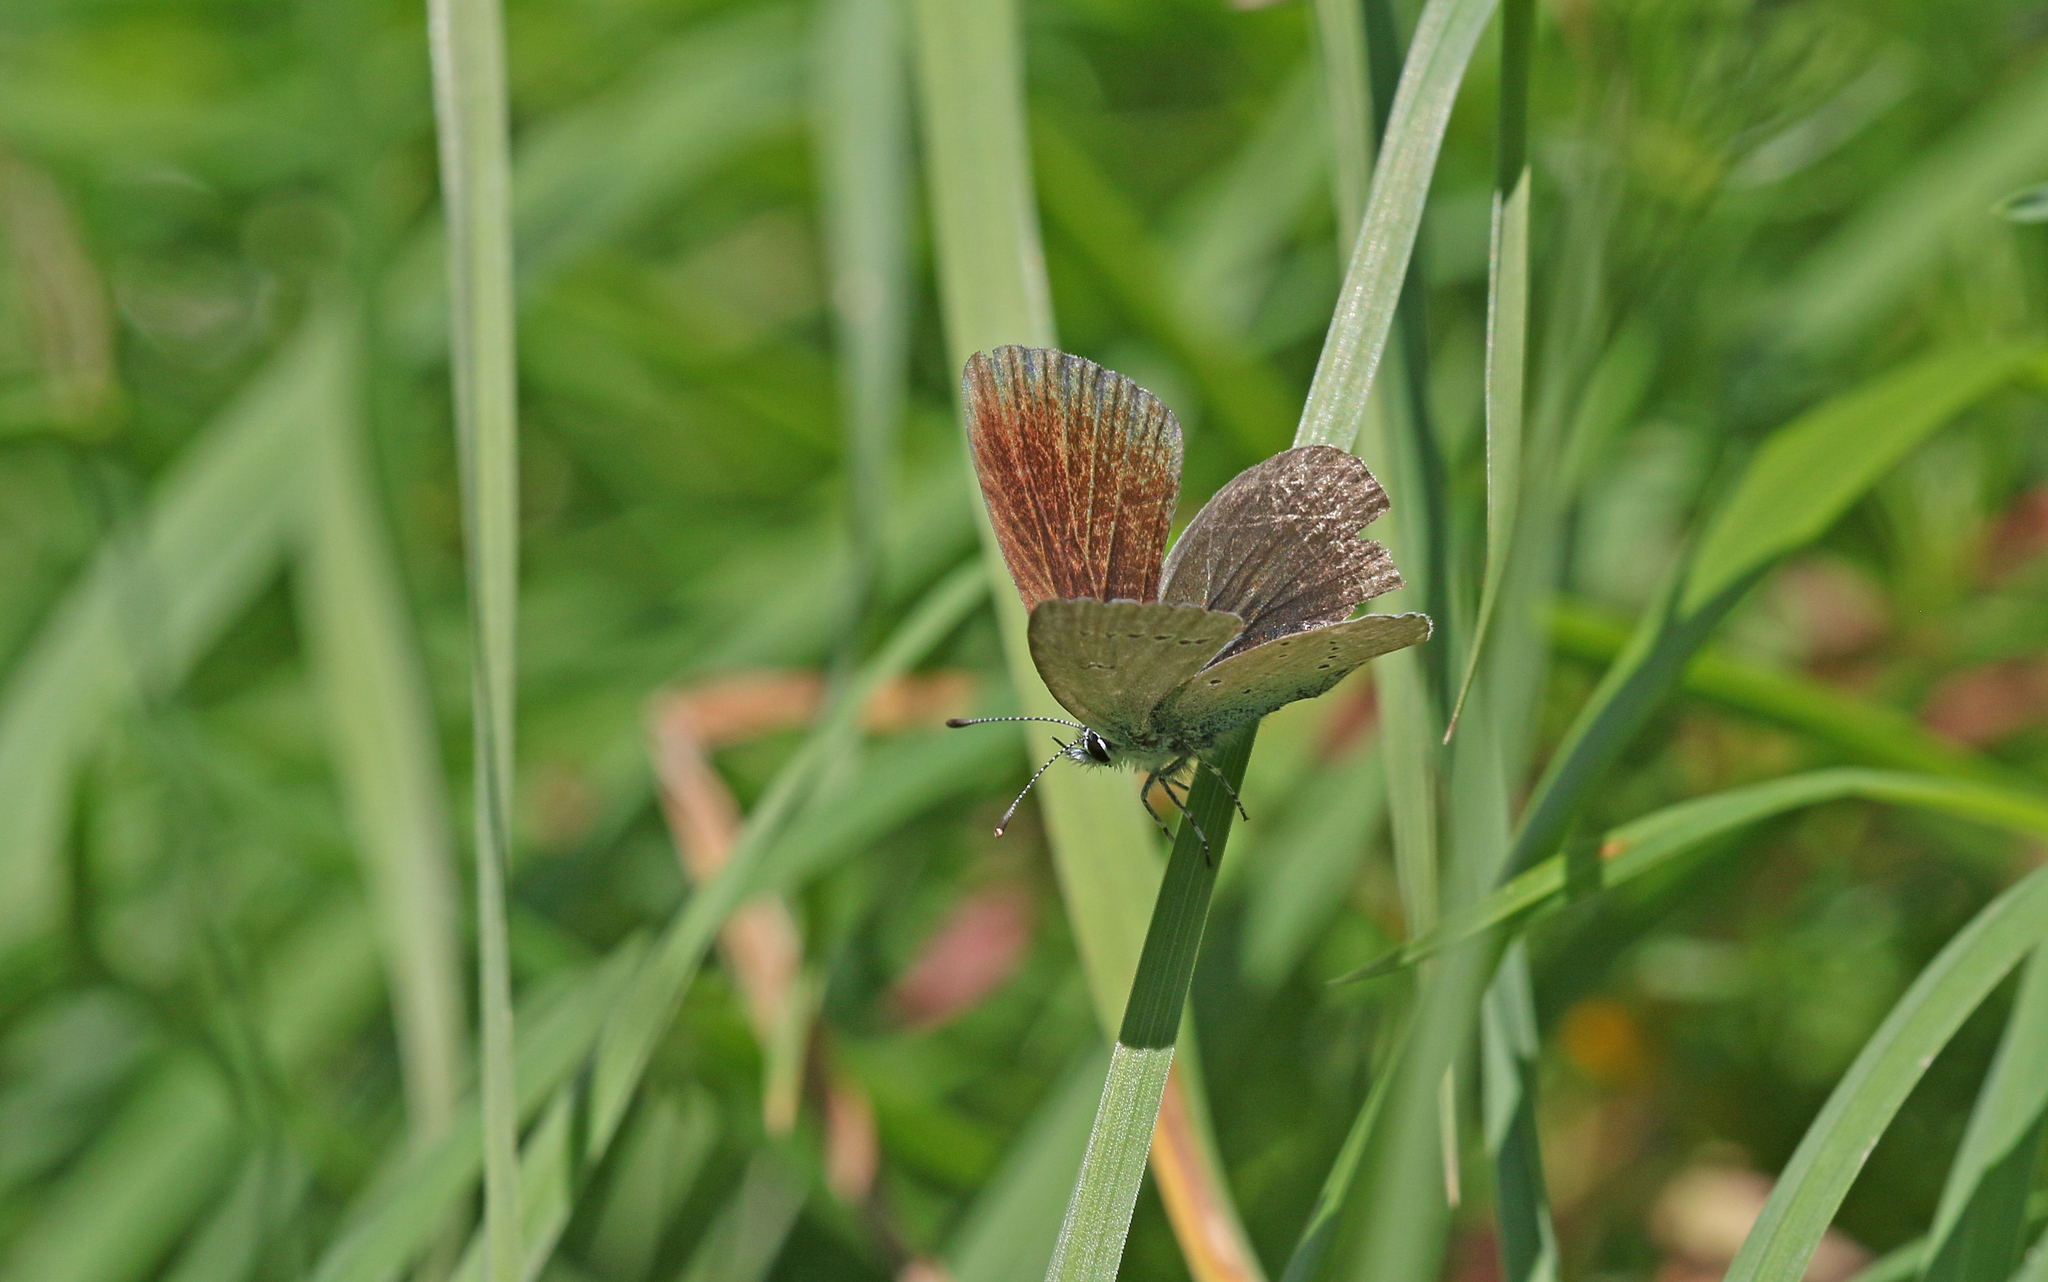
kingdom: Animalia
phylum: Arthropoda
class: Insecta
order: Lepidoptera
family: Lycaenidae
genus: Cupido
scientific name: Cupido minimus
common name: Small blue
